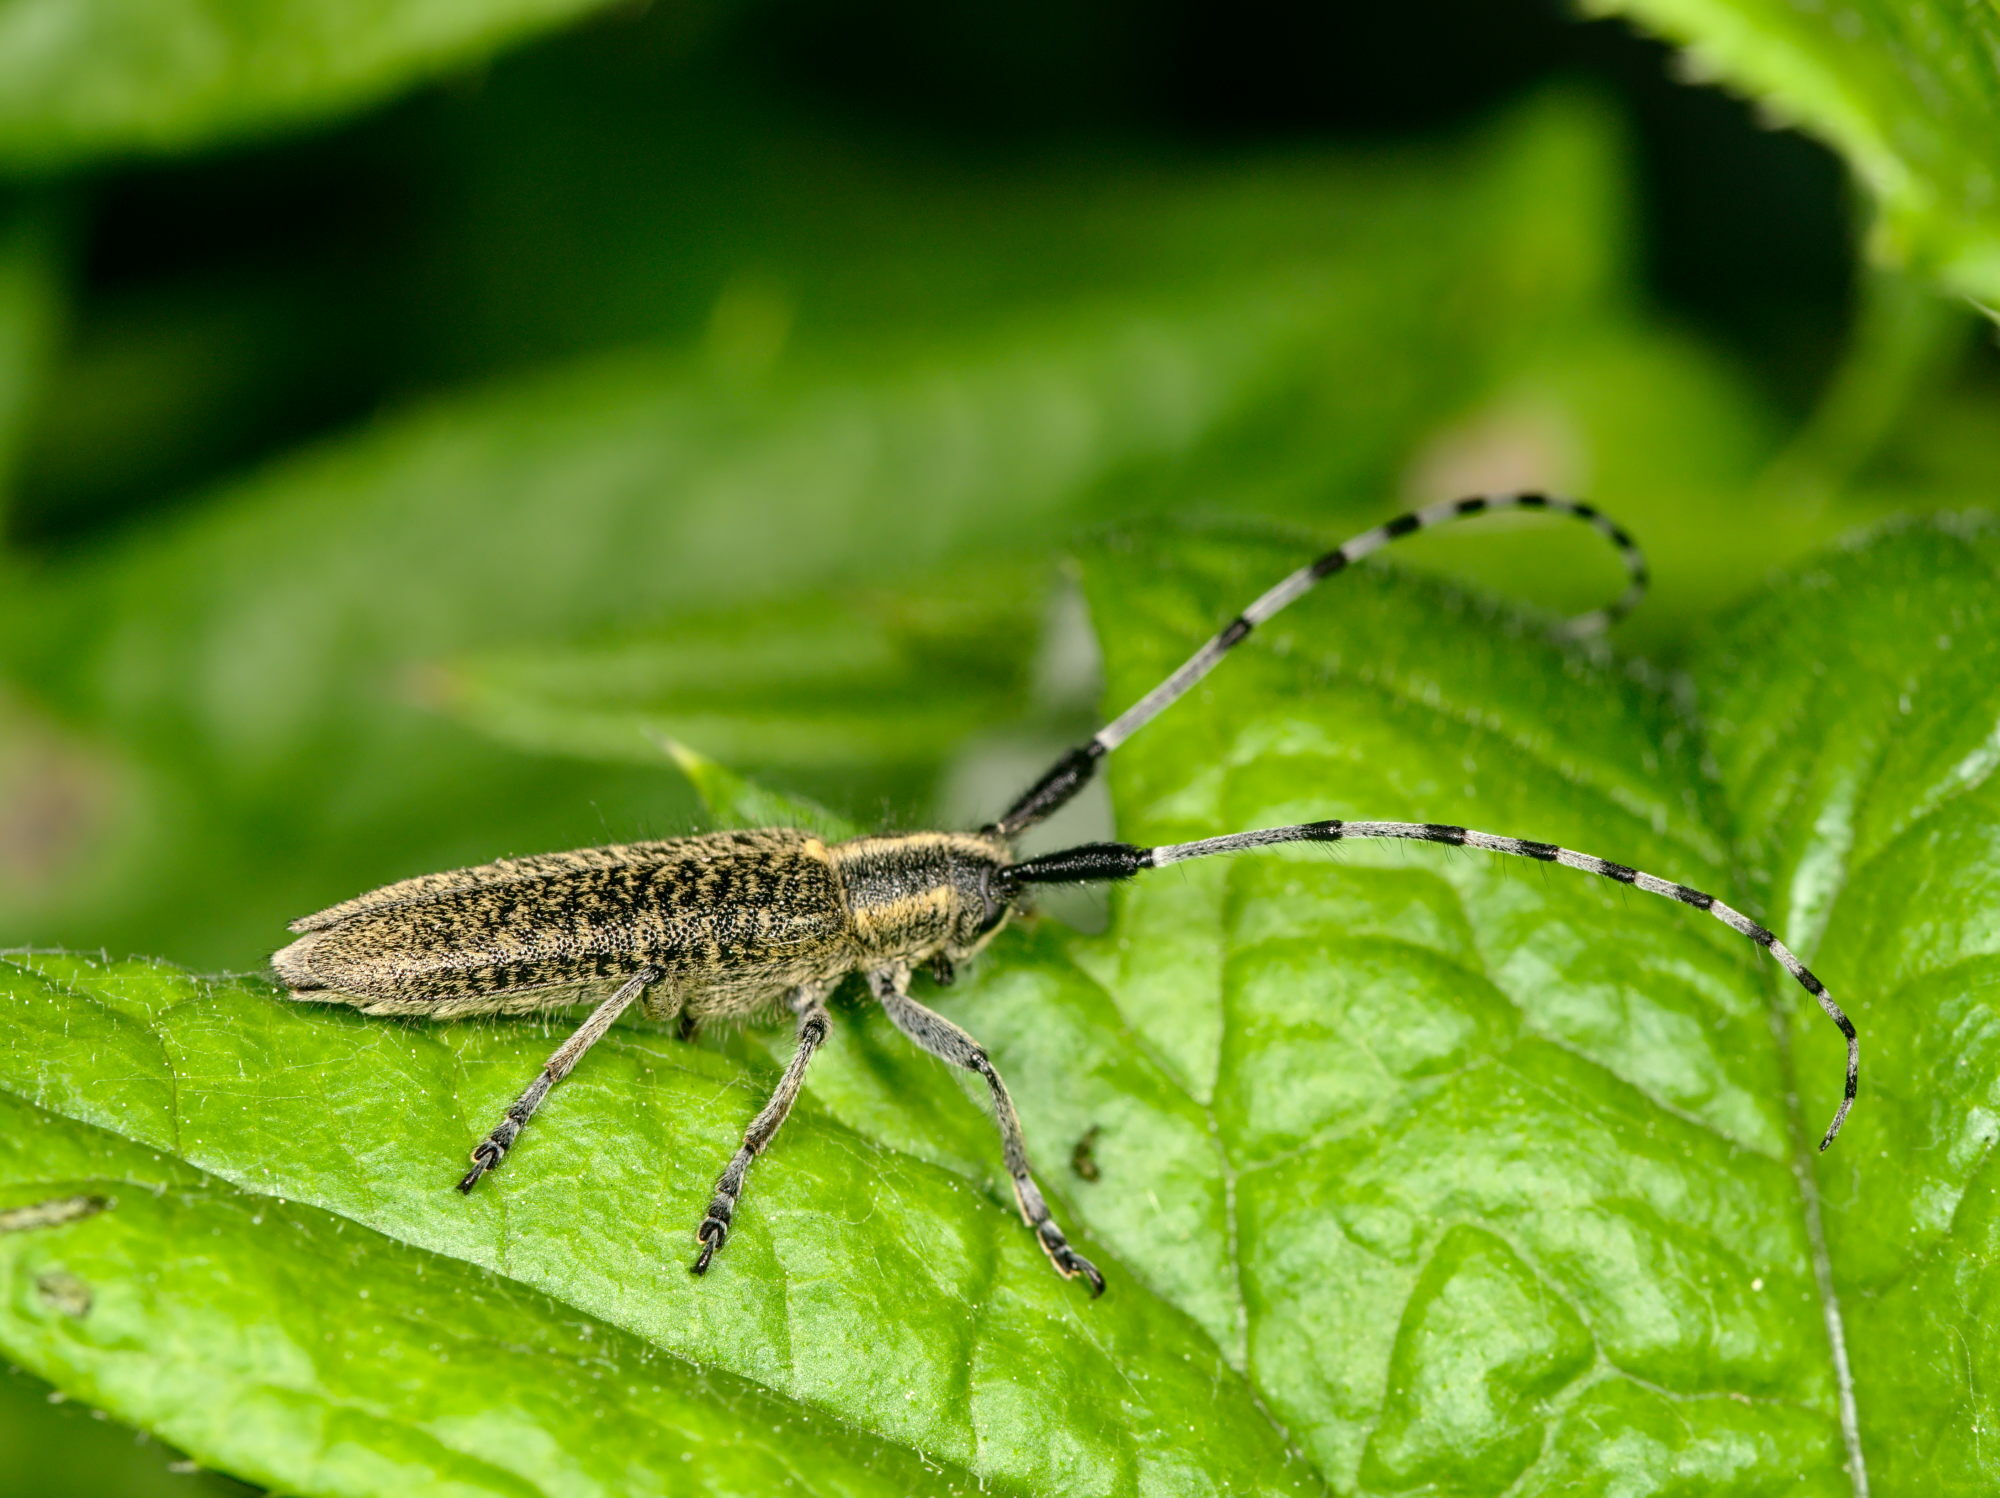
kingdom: Animalia
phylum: Arthropoda
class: Insecta
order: Coleoptera
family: Cerambycidae
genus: Agapanthia
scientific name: Agapanthia villosoviridescens
